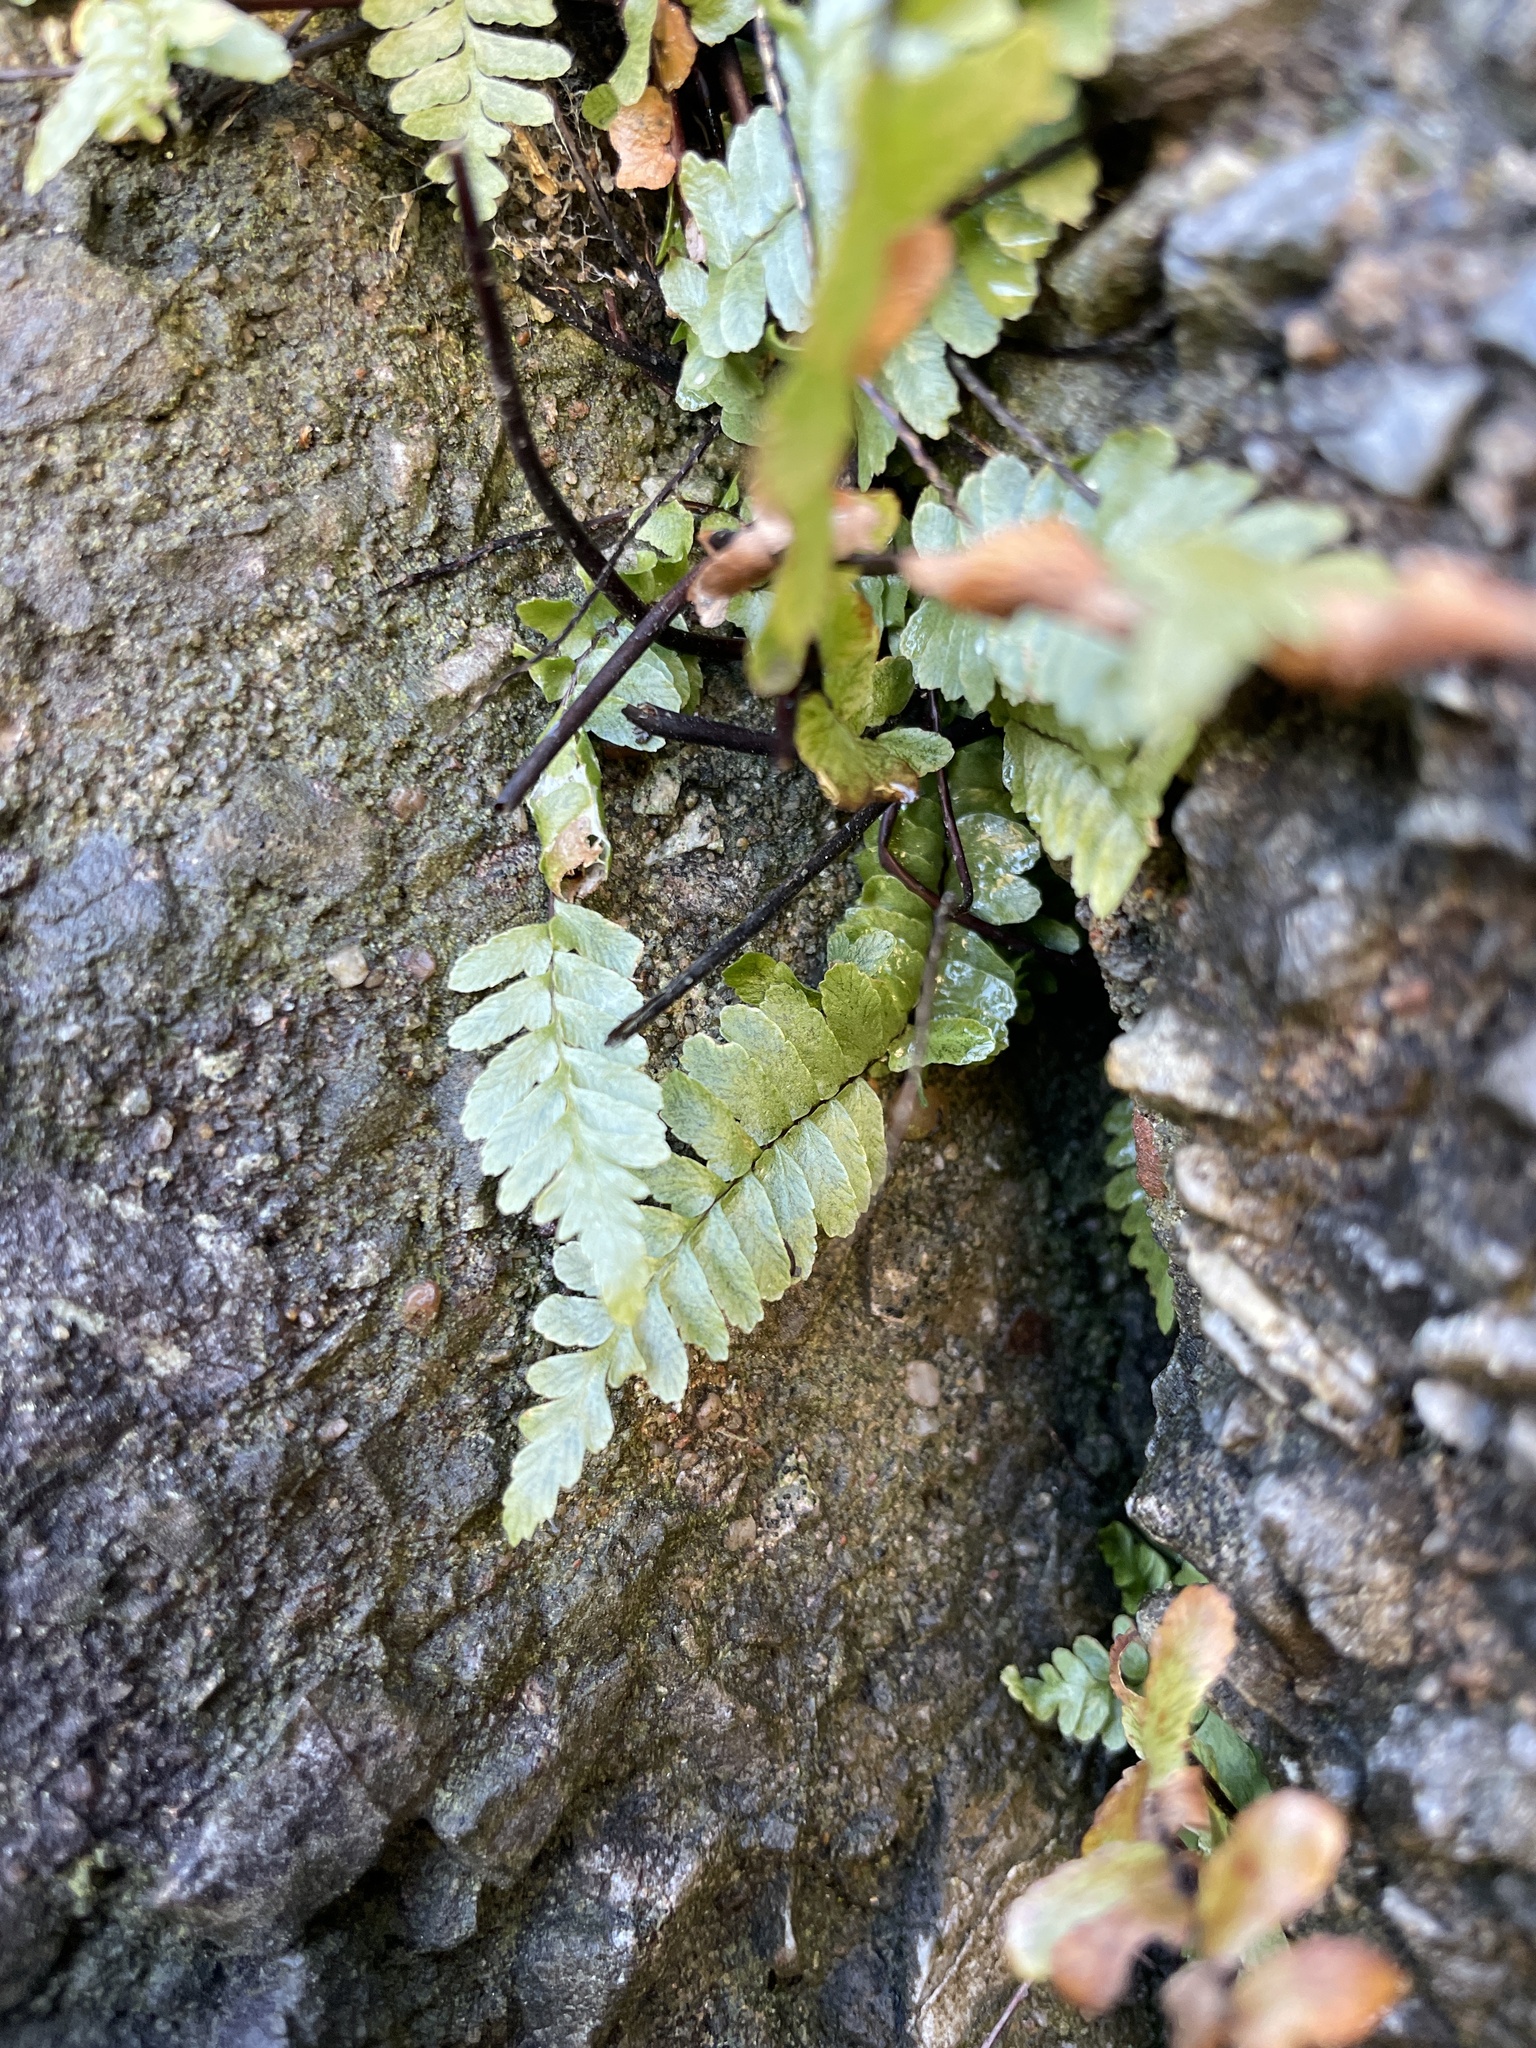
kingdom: Plantae
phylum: Tracheophyta
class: Polypodiopsida
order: Polypodiales
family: Aspleniaceae
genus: Asplenium
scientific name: Asplenium platyneuron
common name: Ebony spleenwort
